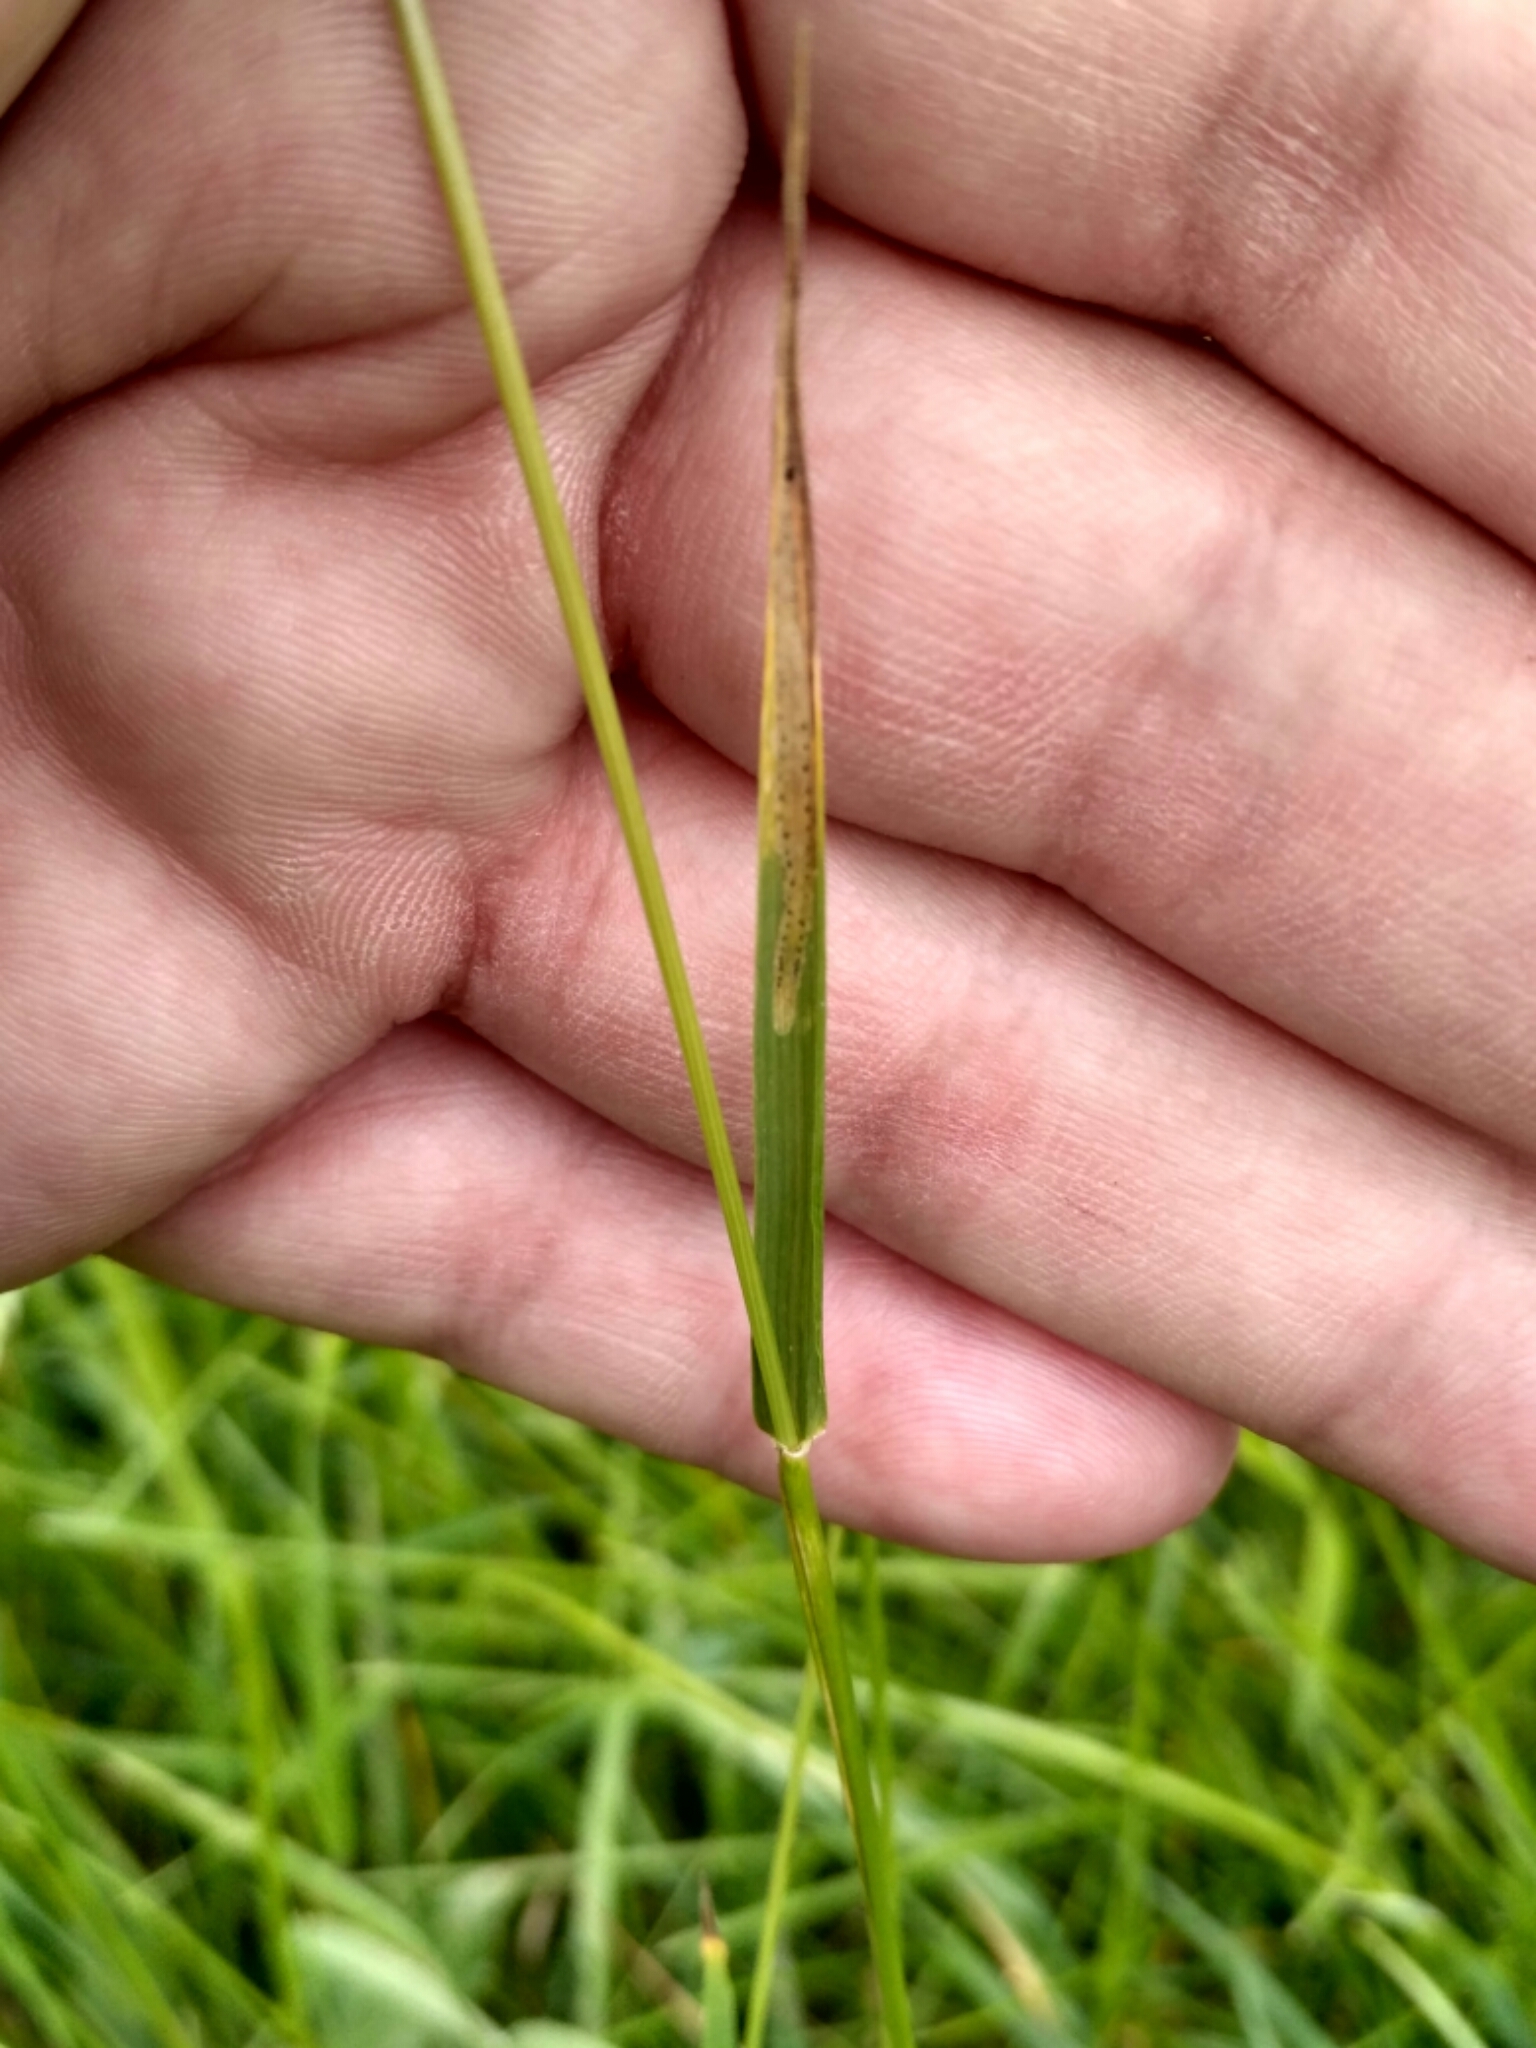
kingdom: Plantae
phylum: Tracheophyta
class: Liliopsida
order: Poales
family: Poaceae
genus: Lolium
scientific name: Lolium pratense
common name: Dover grass
